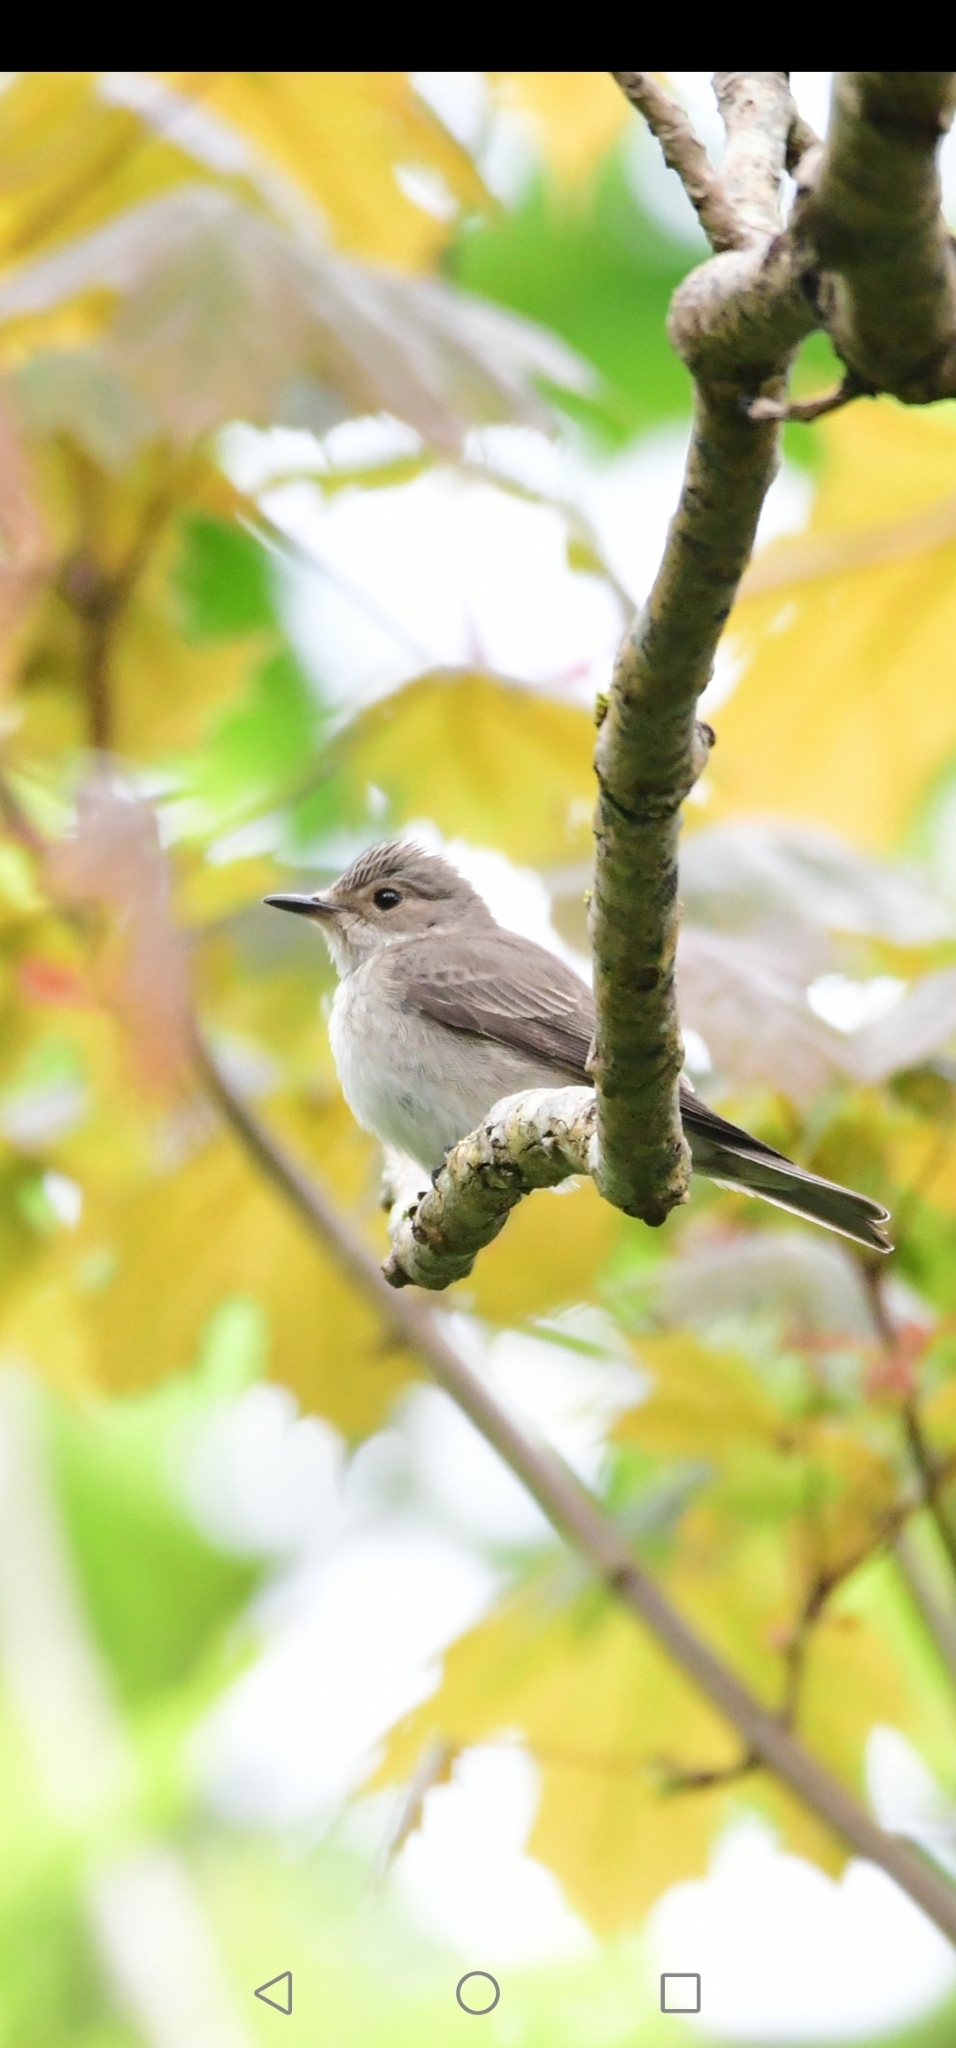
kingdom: Animalia
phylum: Chordata
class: Aves
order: Passeriformes
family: Muscicapidae
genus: Muscicapa
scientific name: Muscicapa striata
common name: Spotted flycatcher
